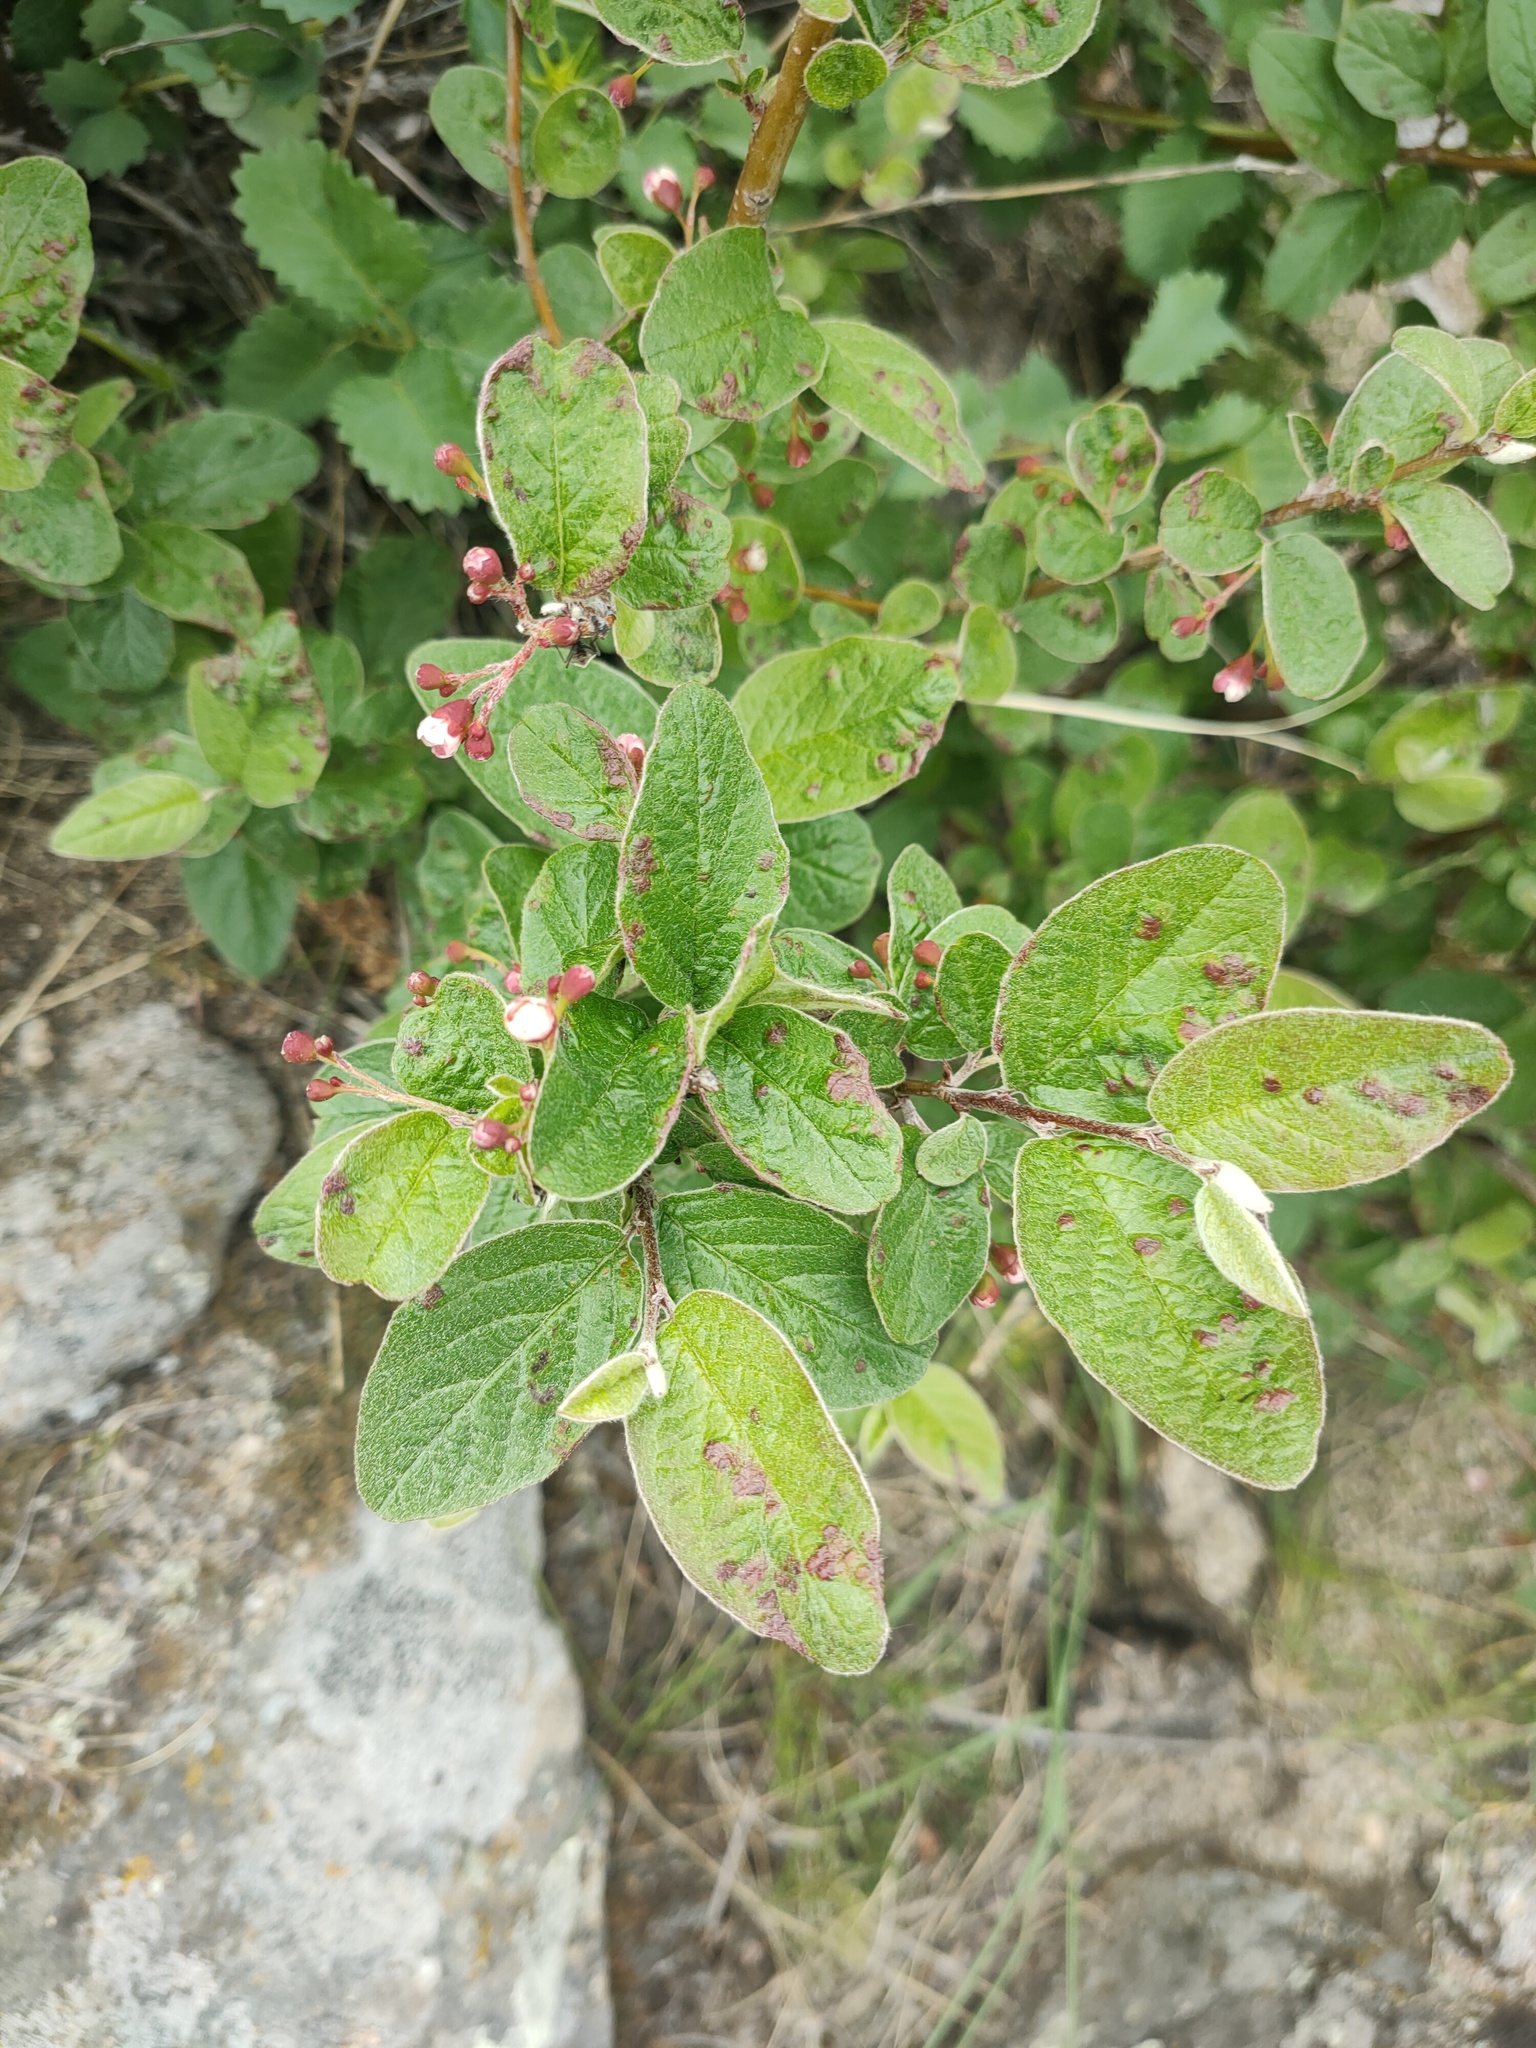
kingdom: Plantae
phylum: Tracheophyta
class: Magnoliopsida
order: Rosales
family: Rosaceae
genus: Cotoneaster
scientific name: Cotoneaster melanocarpus
